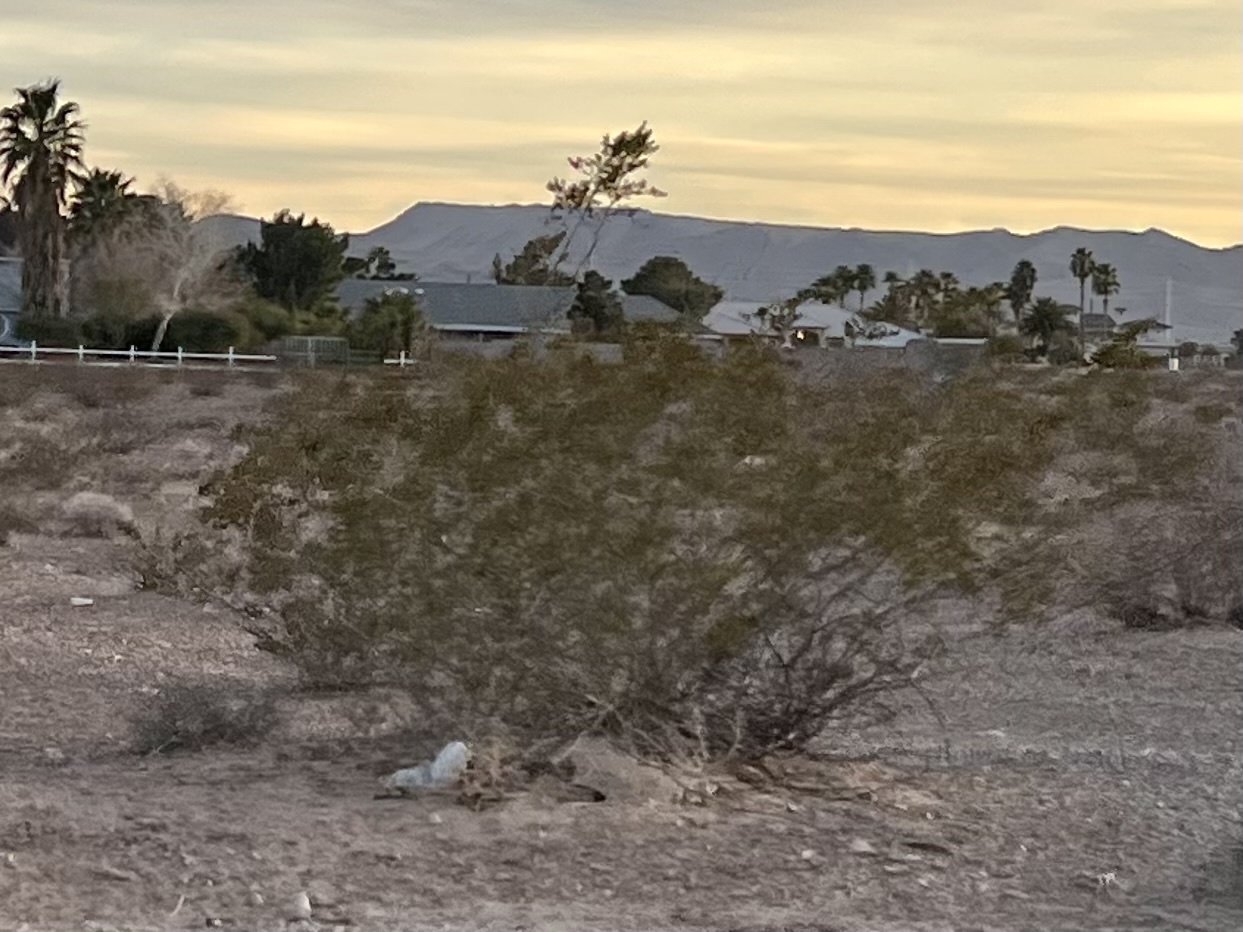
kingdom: Plantae
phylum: Tracheophyta
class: Magnoliopsida
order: Zygophyllales
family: Zygophyllaceae
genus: Larrea
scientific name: Larrea tridentata
